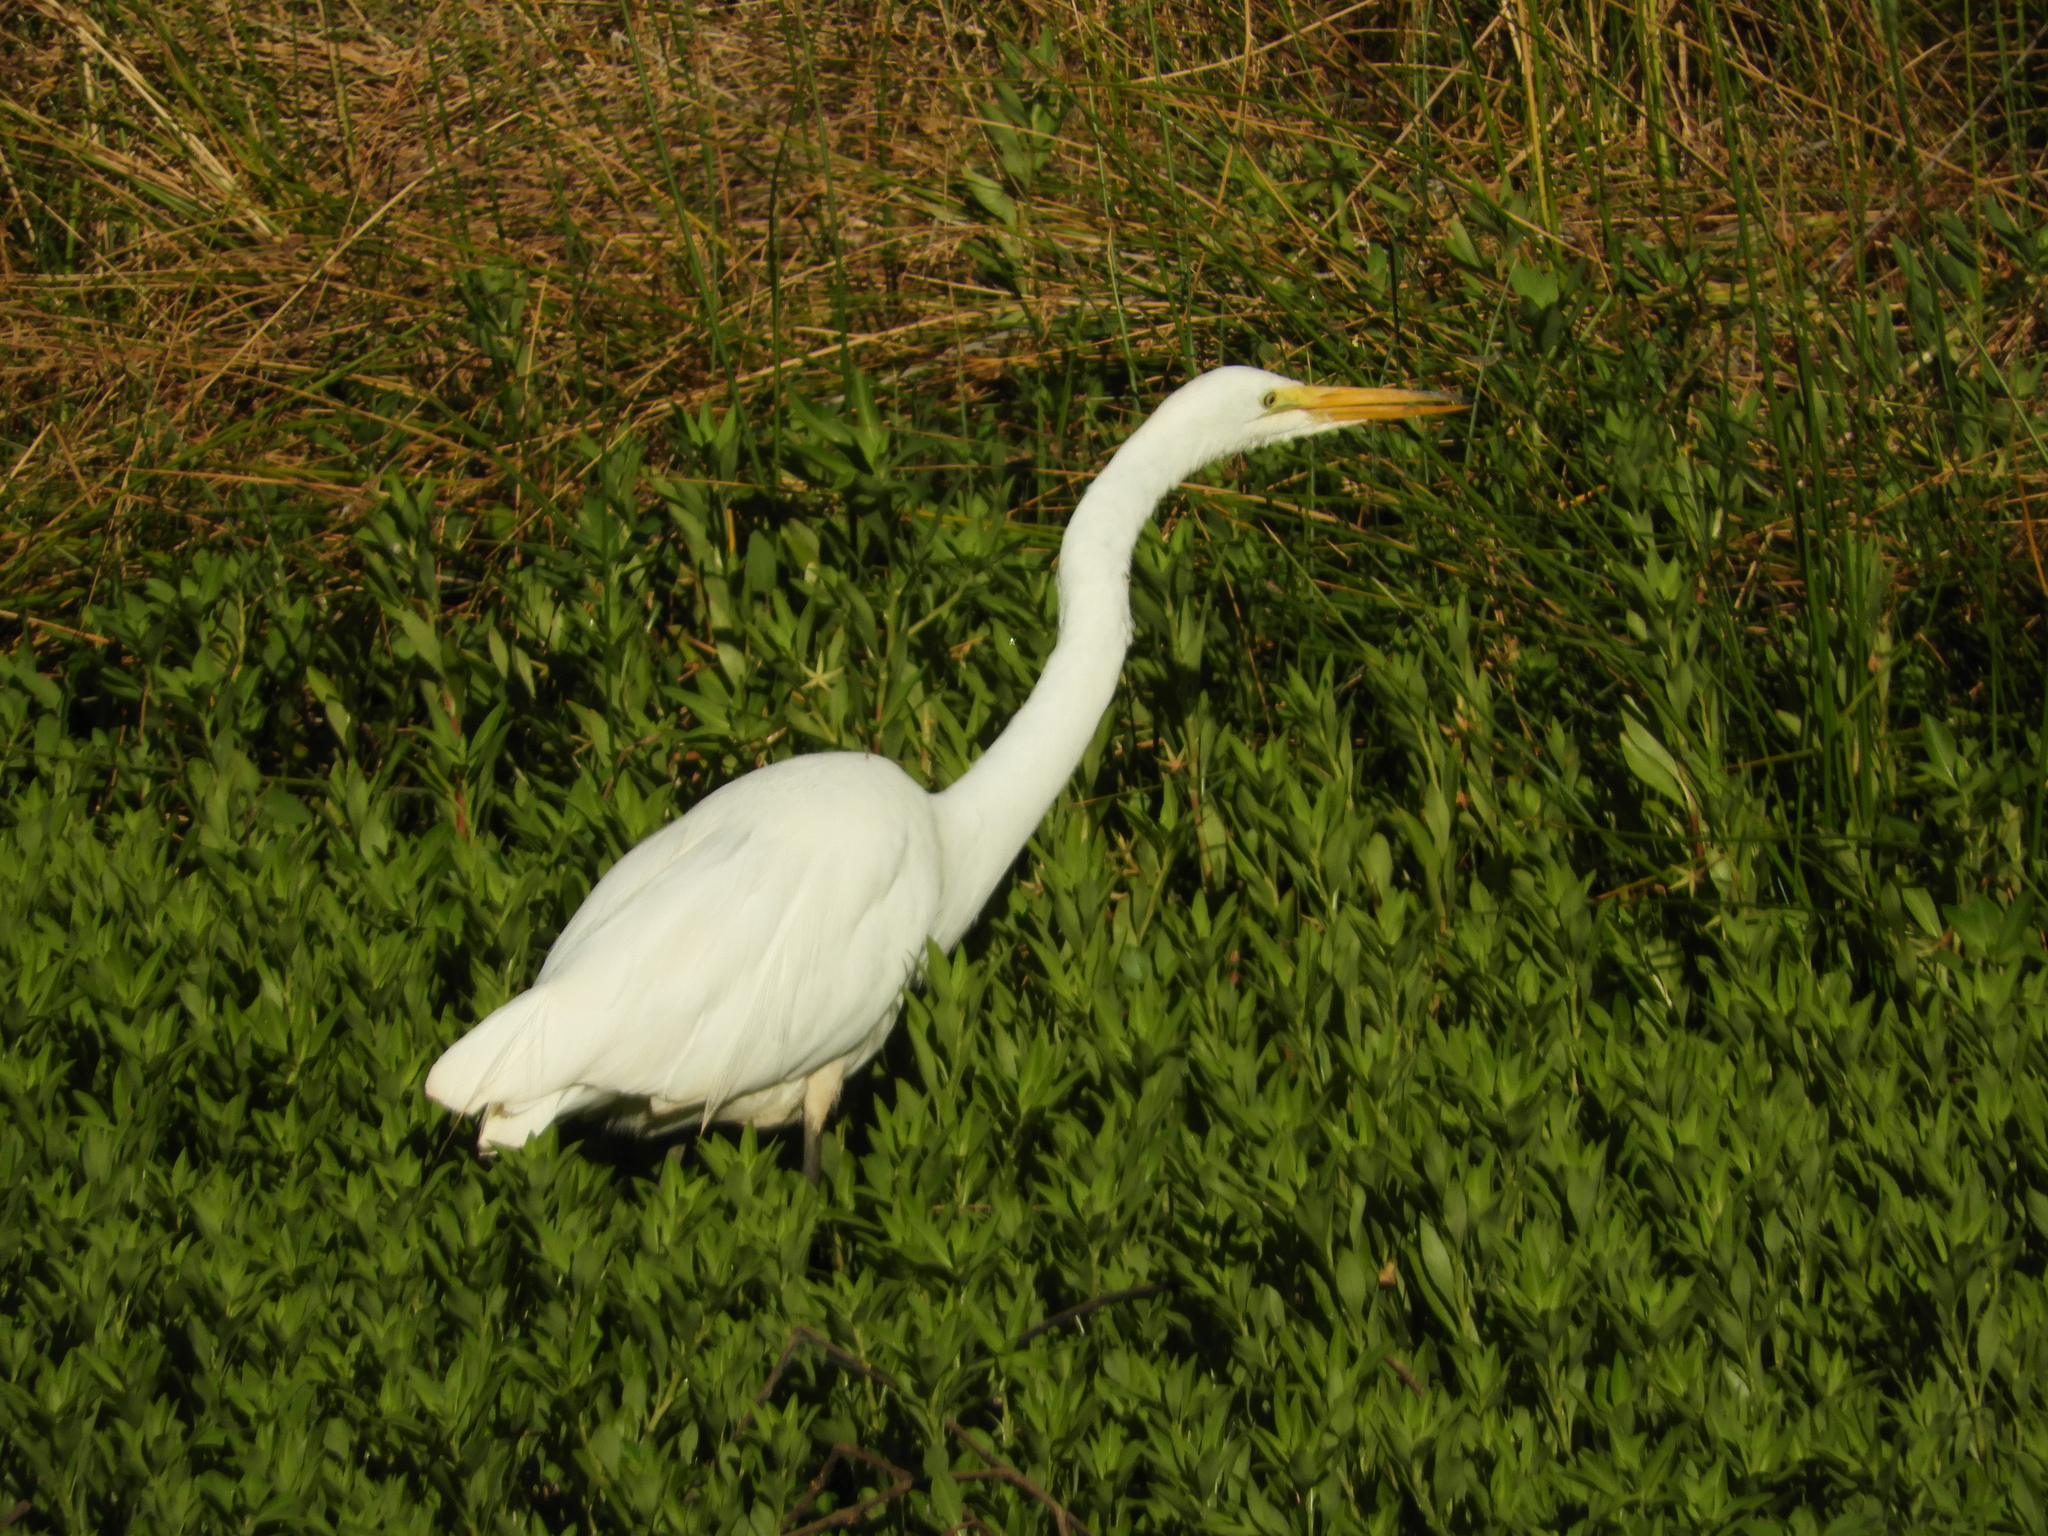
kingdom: Animalia
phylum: Chordata
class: Aves
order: Pelecaniformes
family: Ardeidae
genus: Ardea
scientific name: Ardea alba
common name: Great egret
